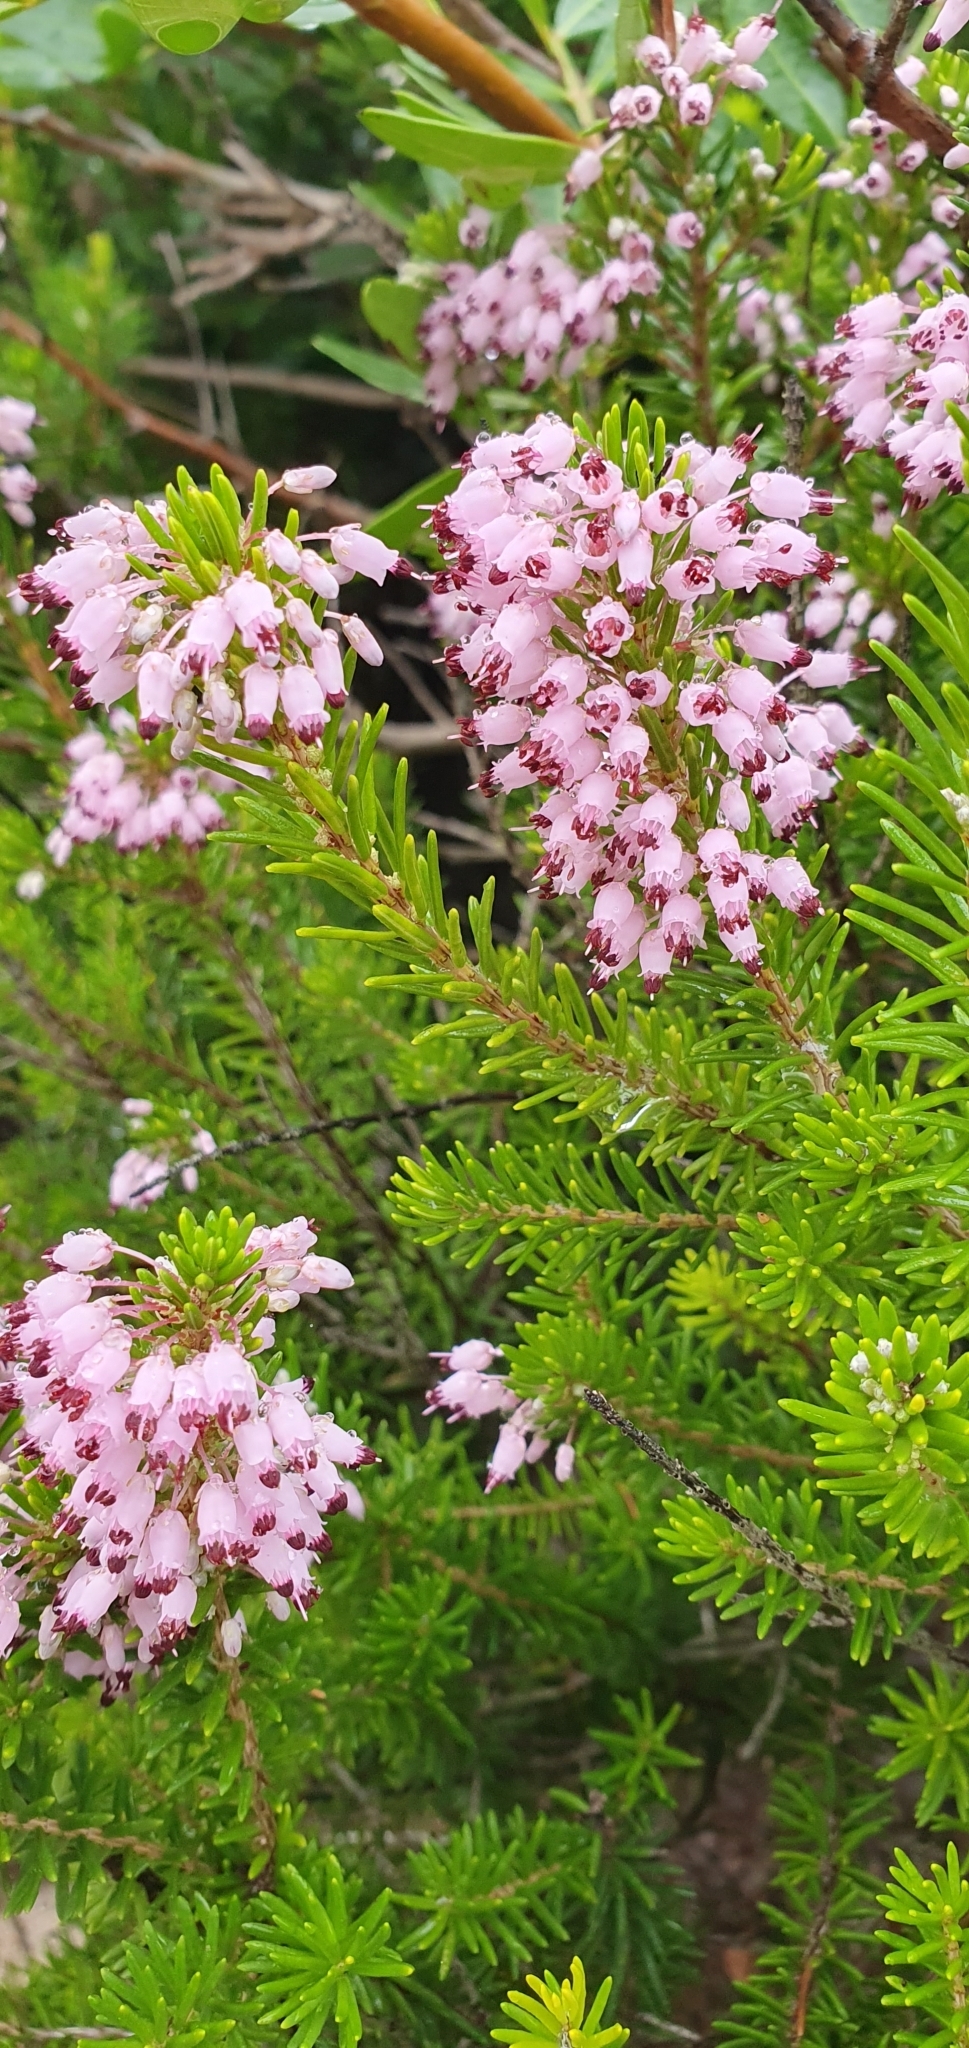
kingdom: Plantae
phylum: Tracheophyta
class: Magnoliopsida
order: Ericales
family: Ericaceae
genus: Erica
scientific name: Erica multiflora
